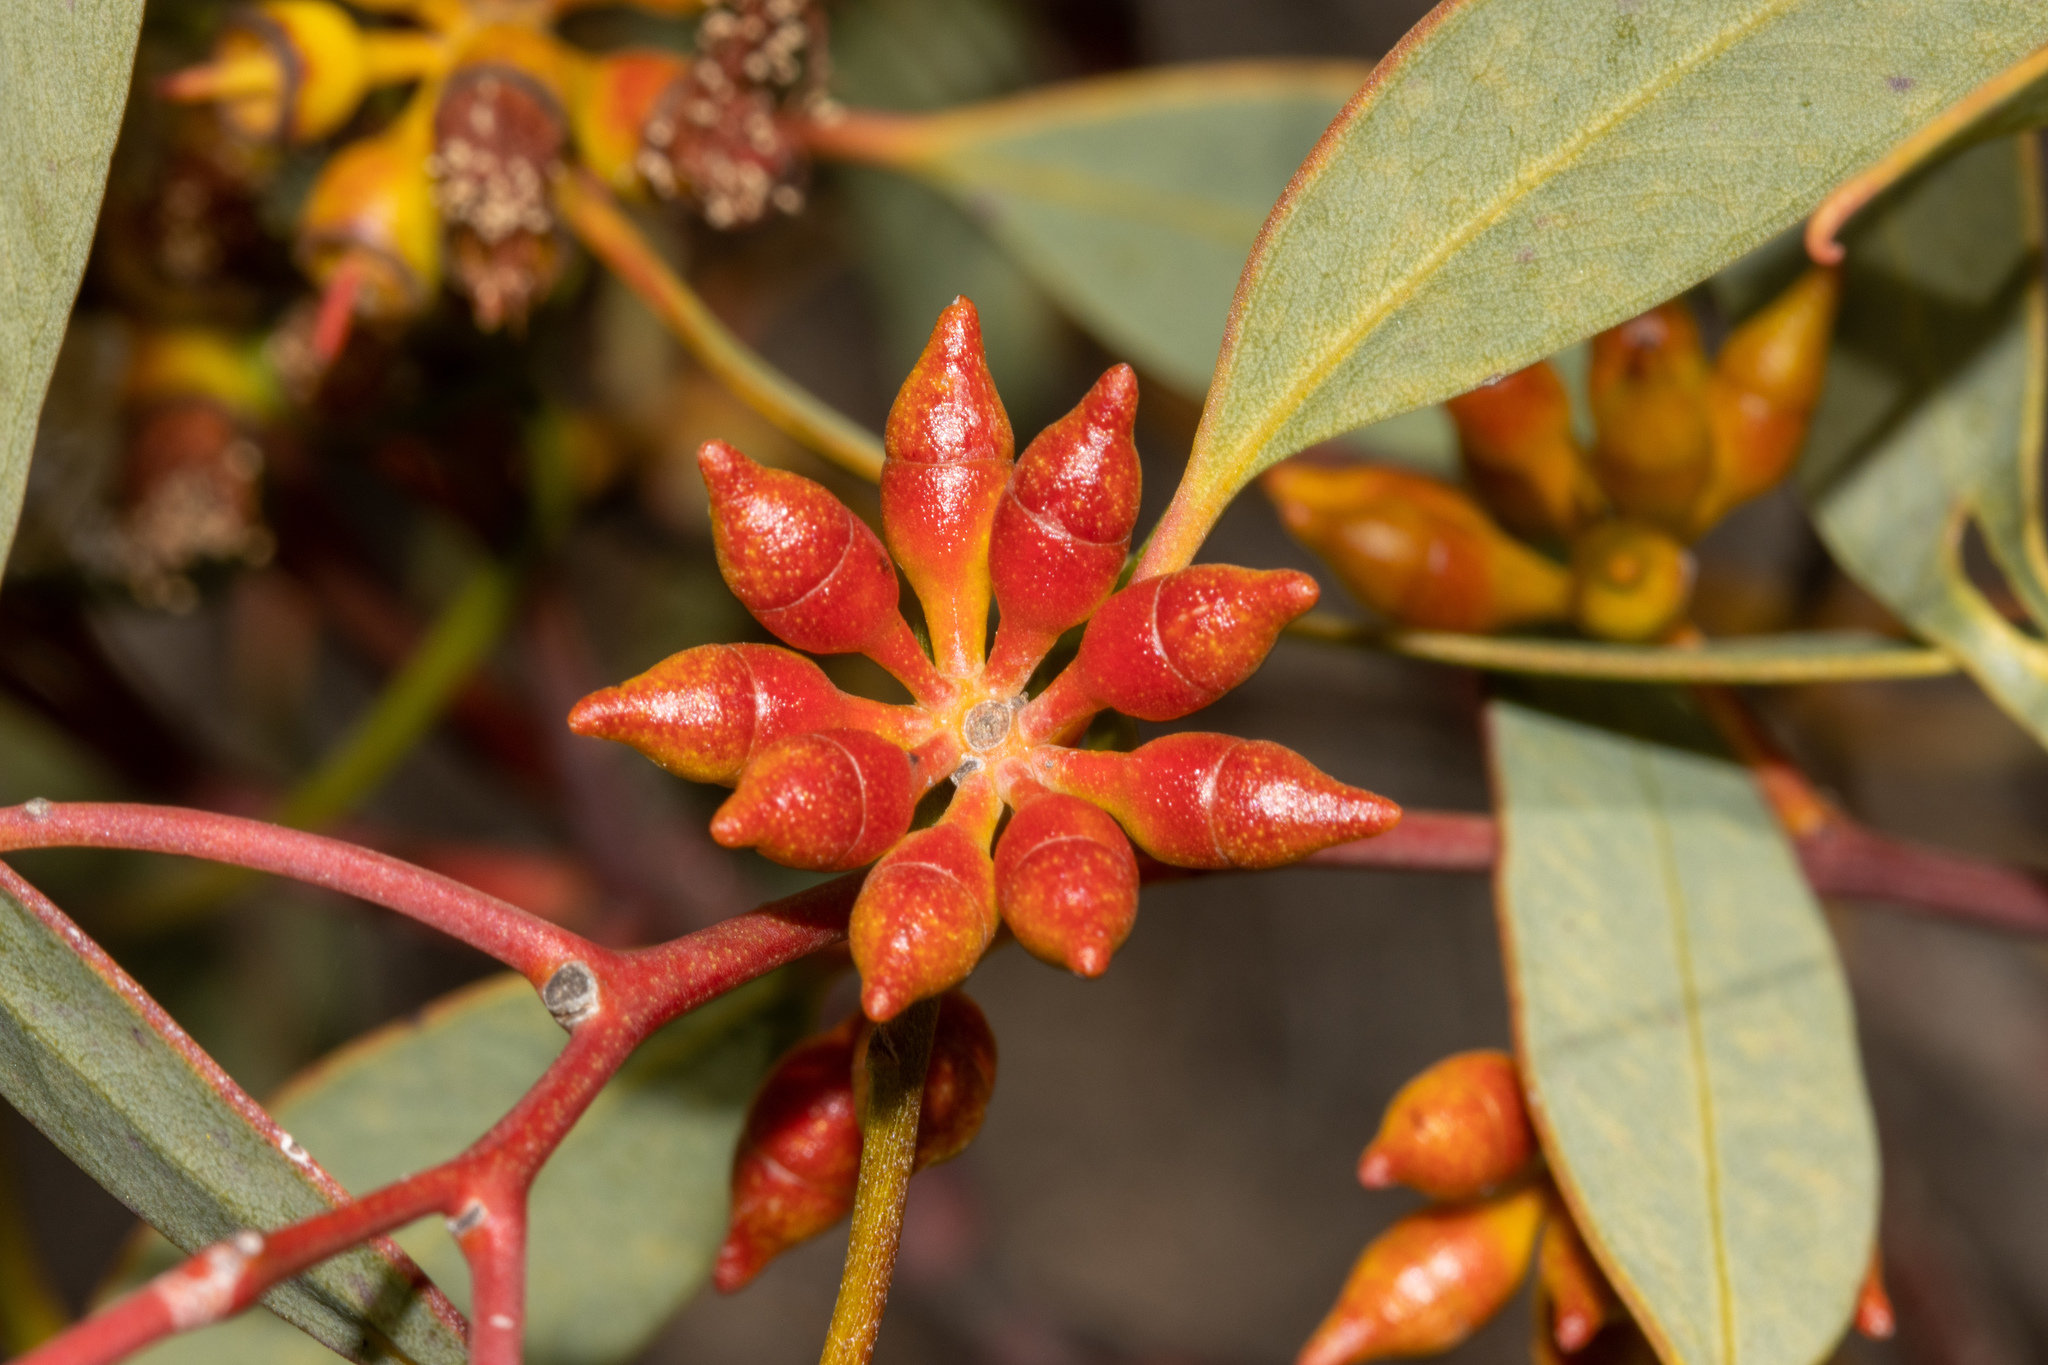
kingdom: Plantae
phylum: Tracheophyta
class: Magnoliopsida
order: Myrtales
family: Myrtaceae
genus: Eucalyptus
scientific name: Eucalyptus yalatensis
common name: Yalata mallee
